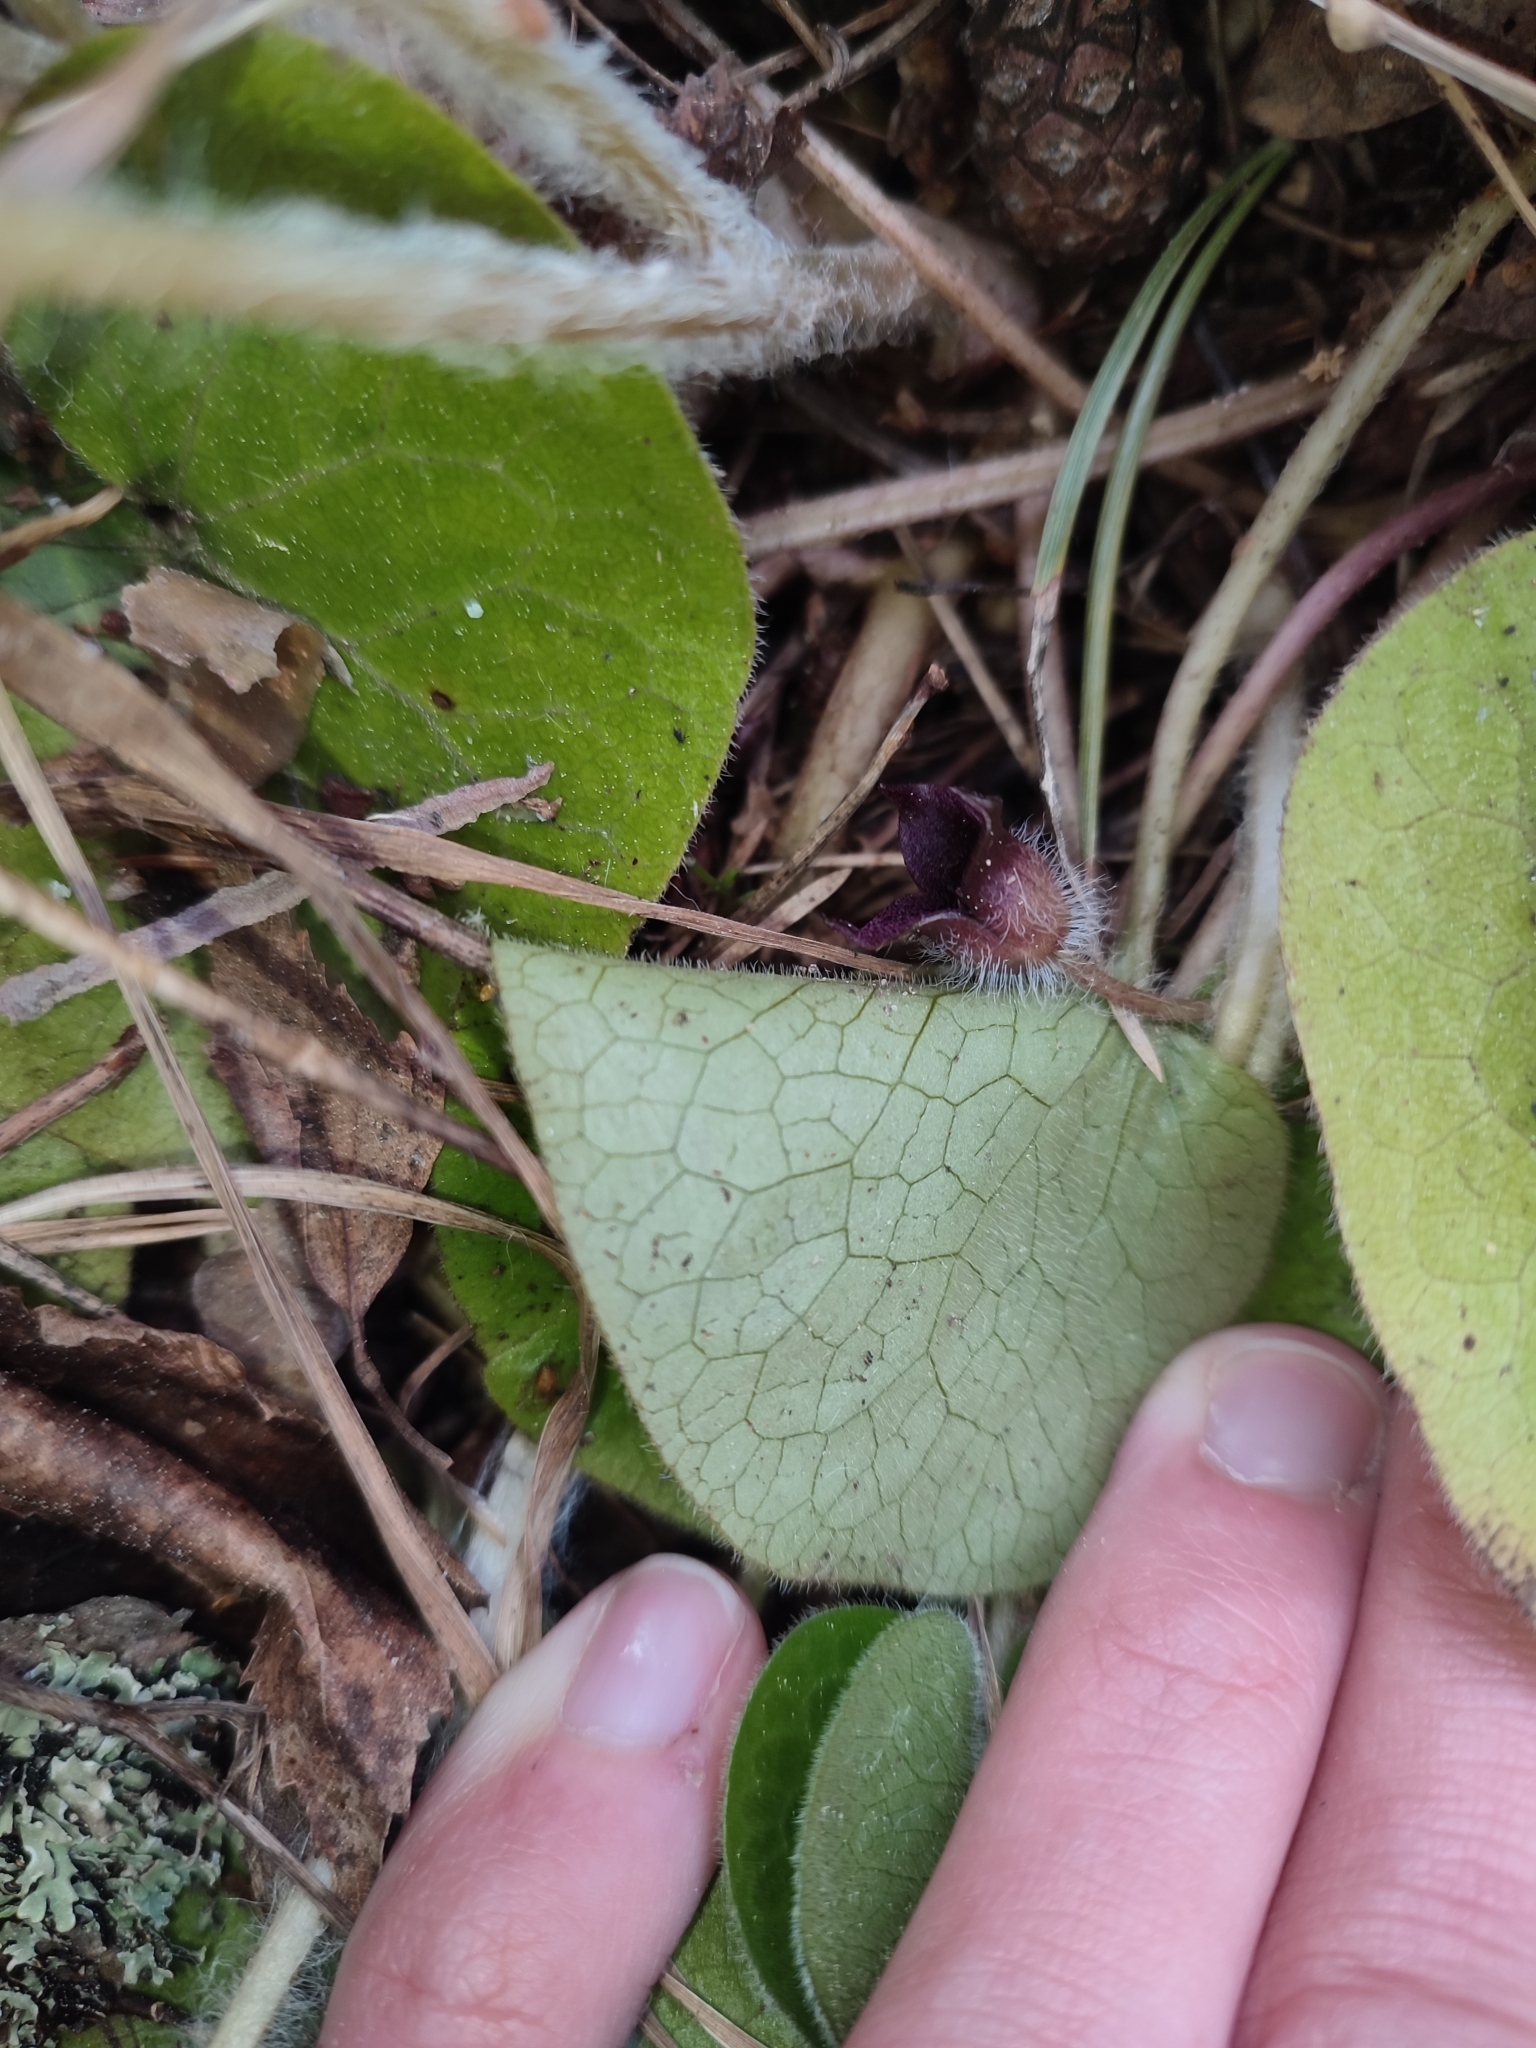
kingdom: Plantae
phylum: Tracheophyta
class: Magnoliopsida
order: Piperales
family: Aristolochiaceae
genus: Asarum
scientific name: Asarum europaeum
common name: Asarabacca
